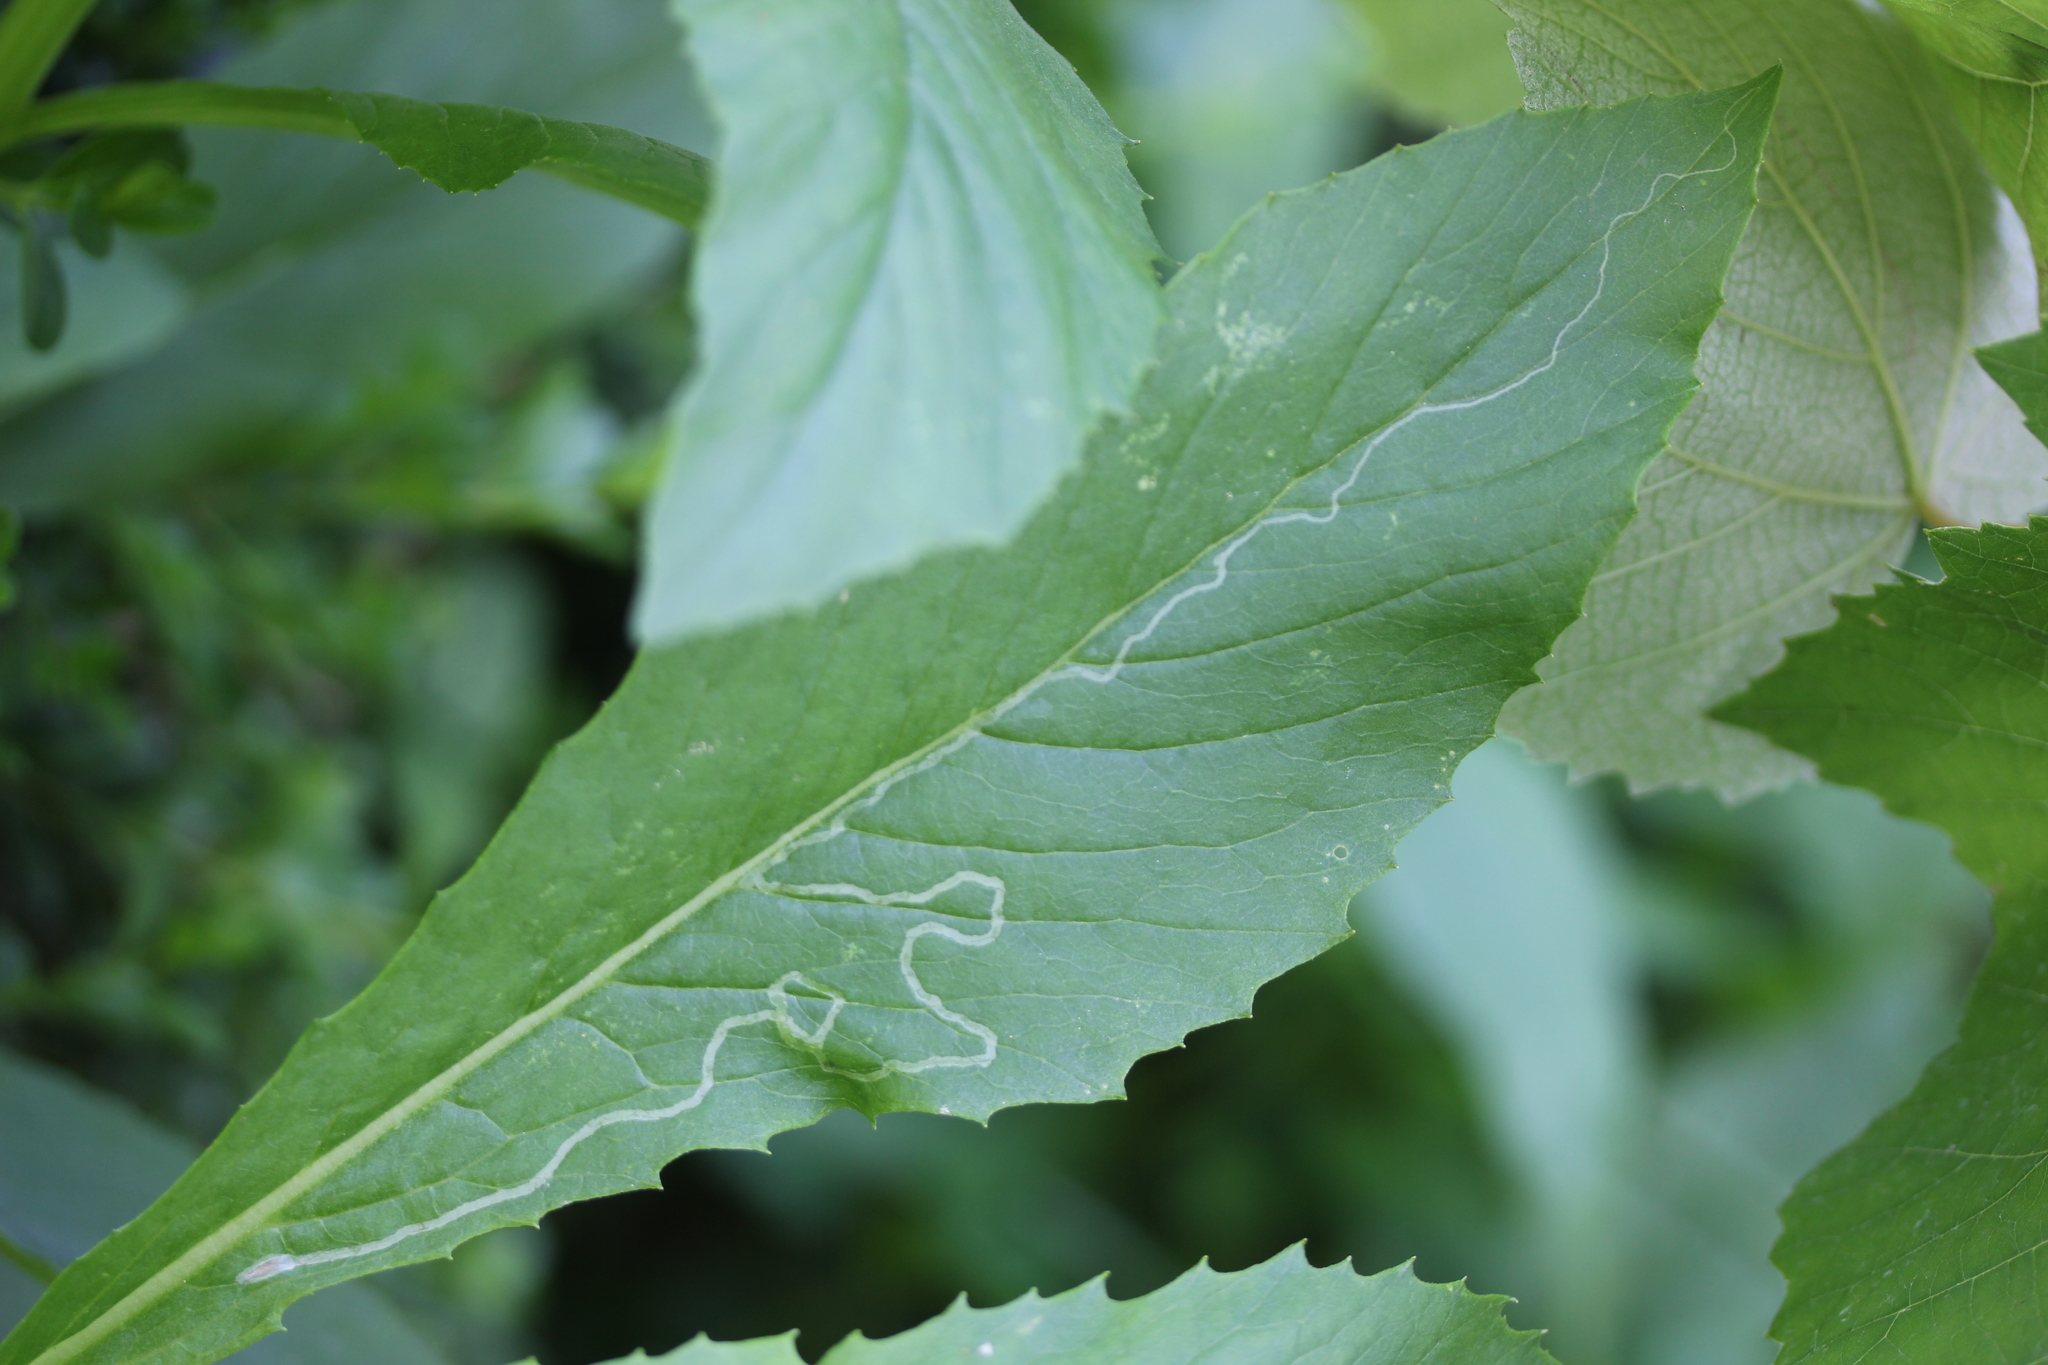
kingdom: Animalia
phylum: Arthropoda
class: Insecta
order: Lepidoptera
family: Gracillariidae
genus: Phyllocnistis
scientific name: Phyllocnistis insignis
